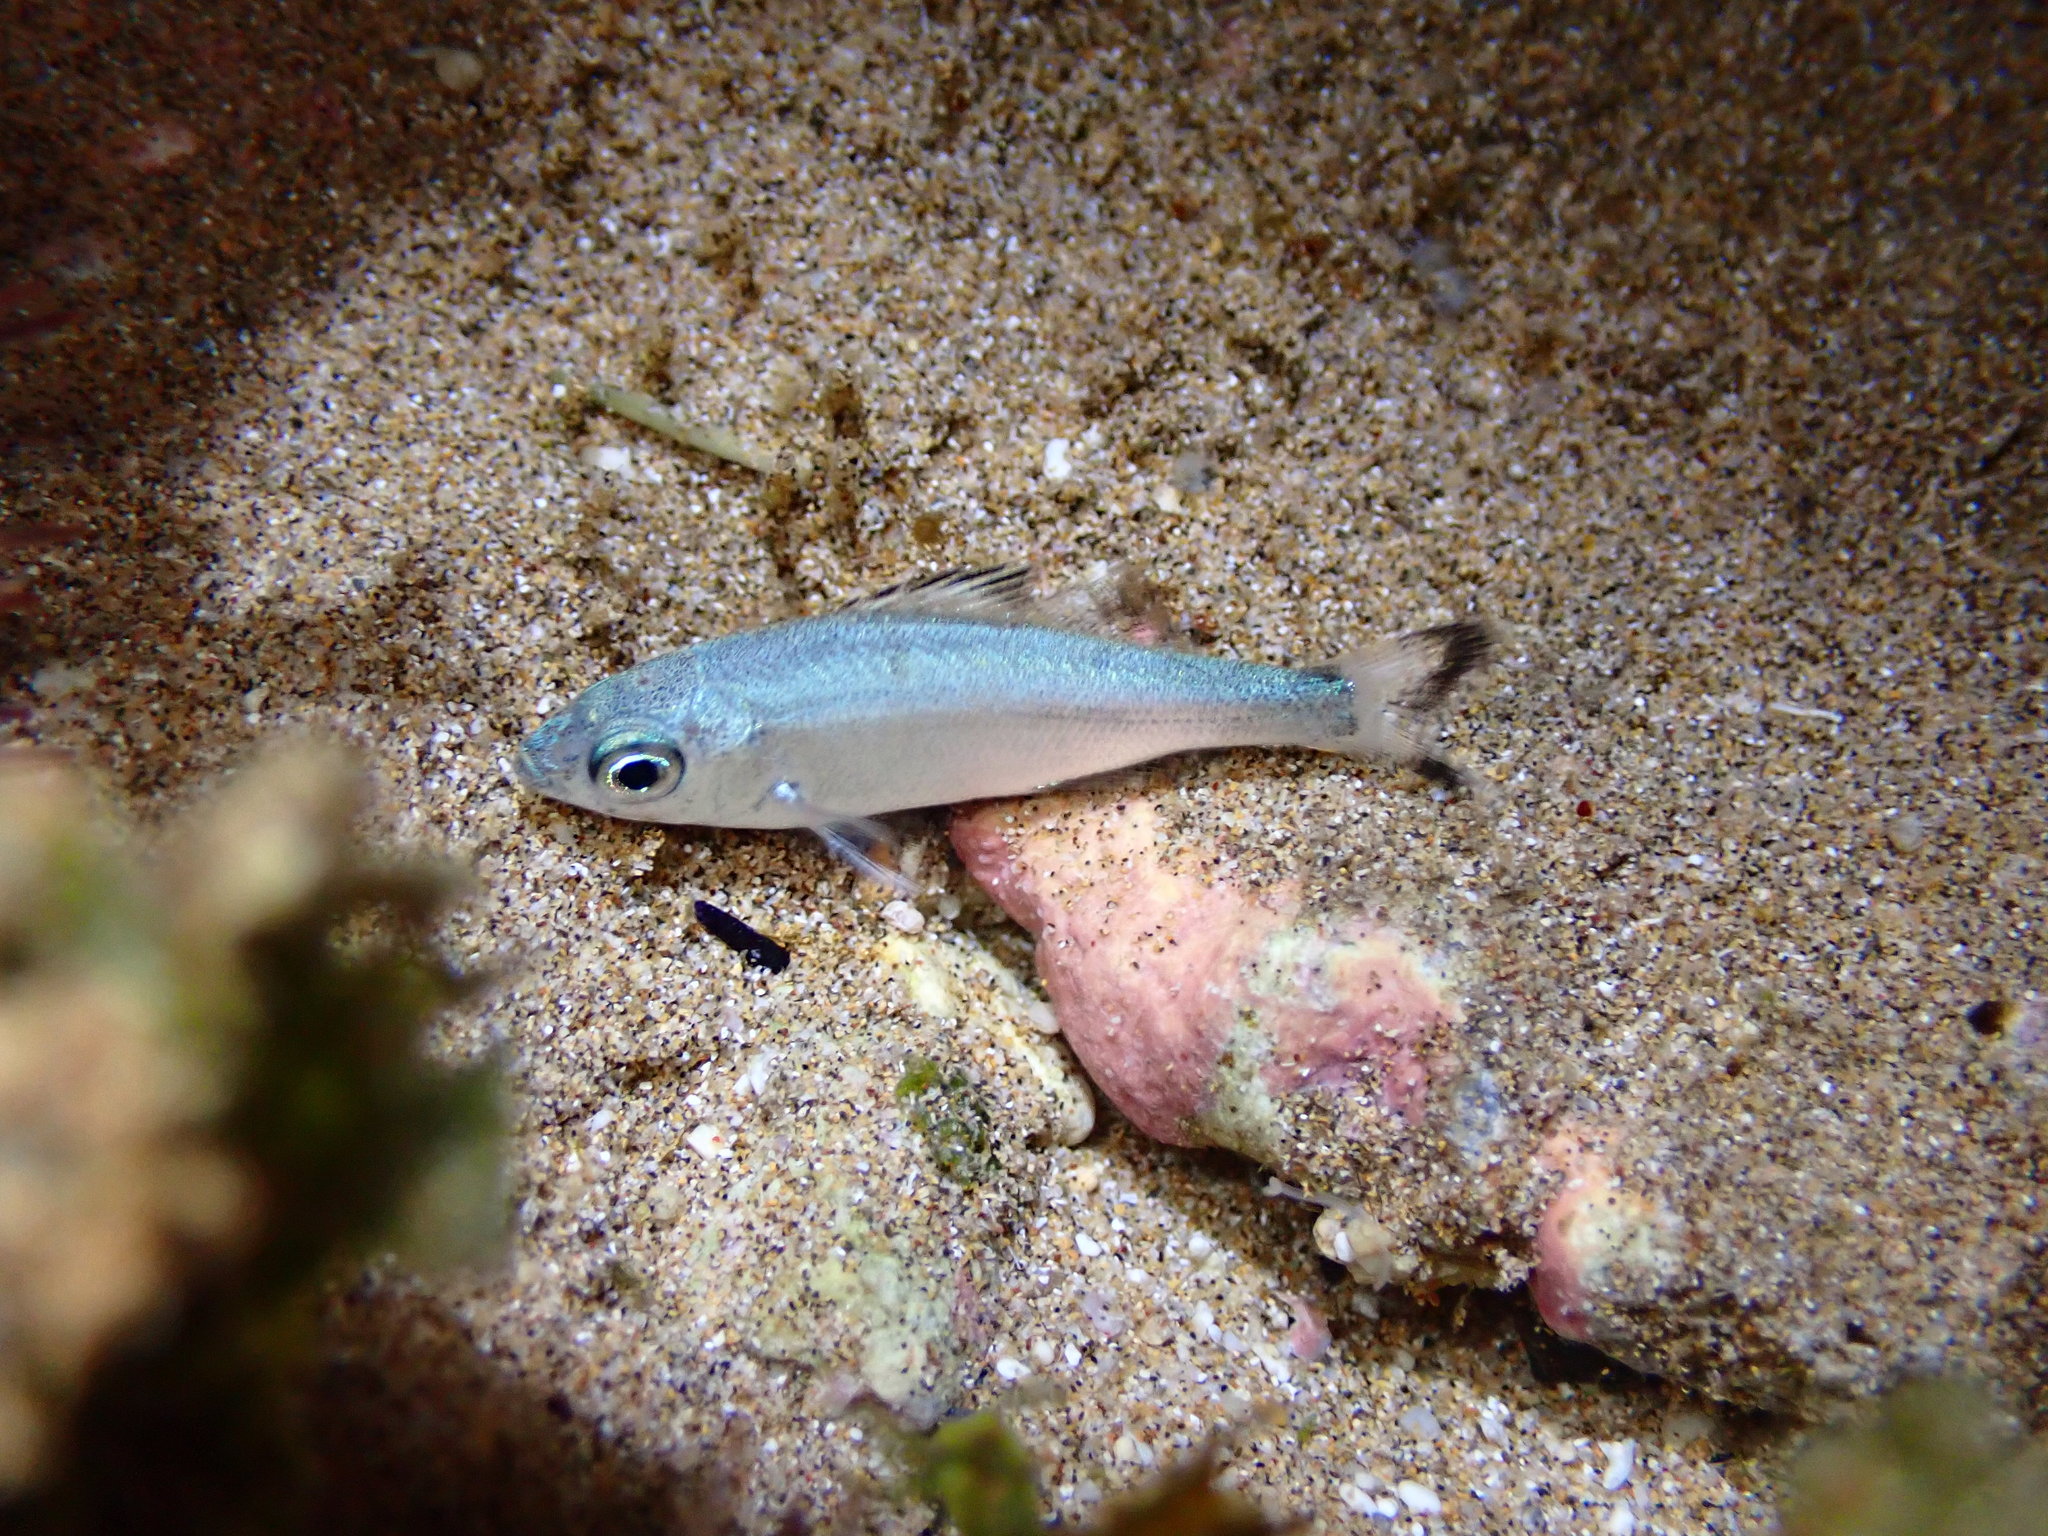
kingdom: Animalia
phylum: Chordata
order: Perciformes
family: Kuhliidae
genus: Kuhlia
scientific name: Kuhlia xenura
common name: Hawaiian flagtail
